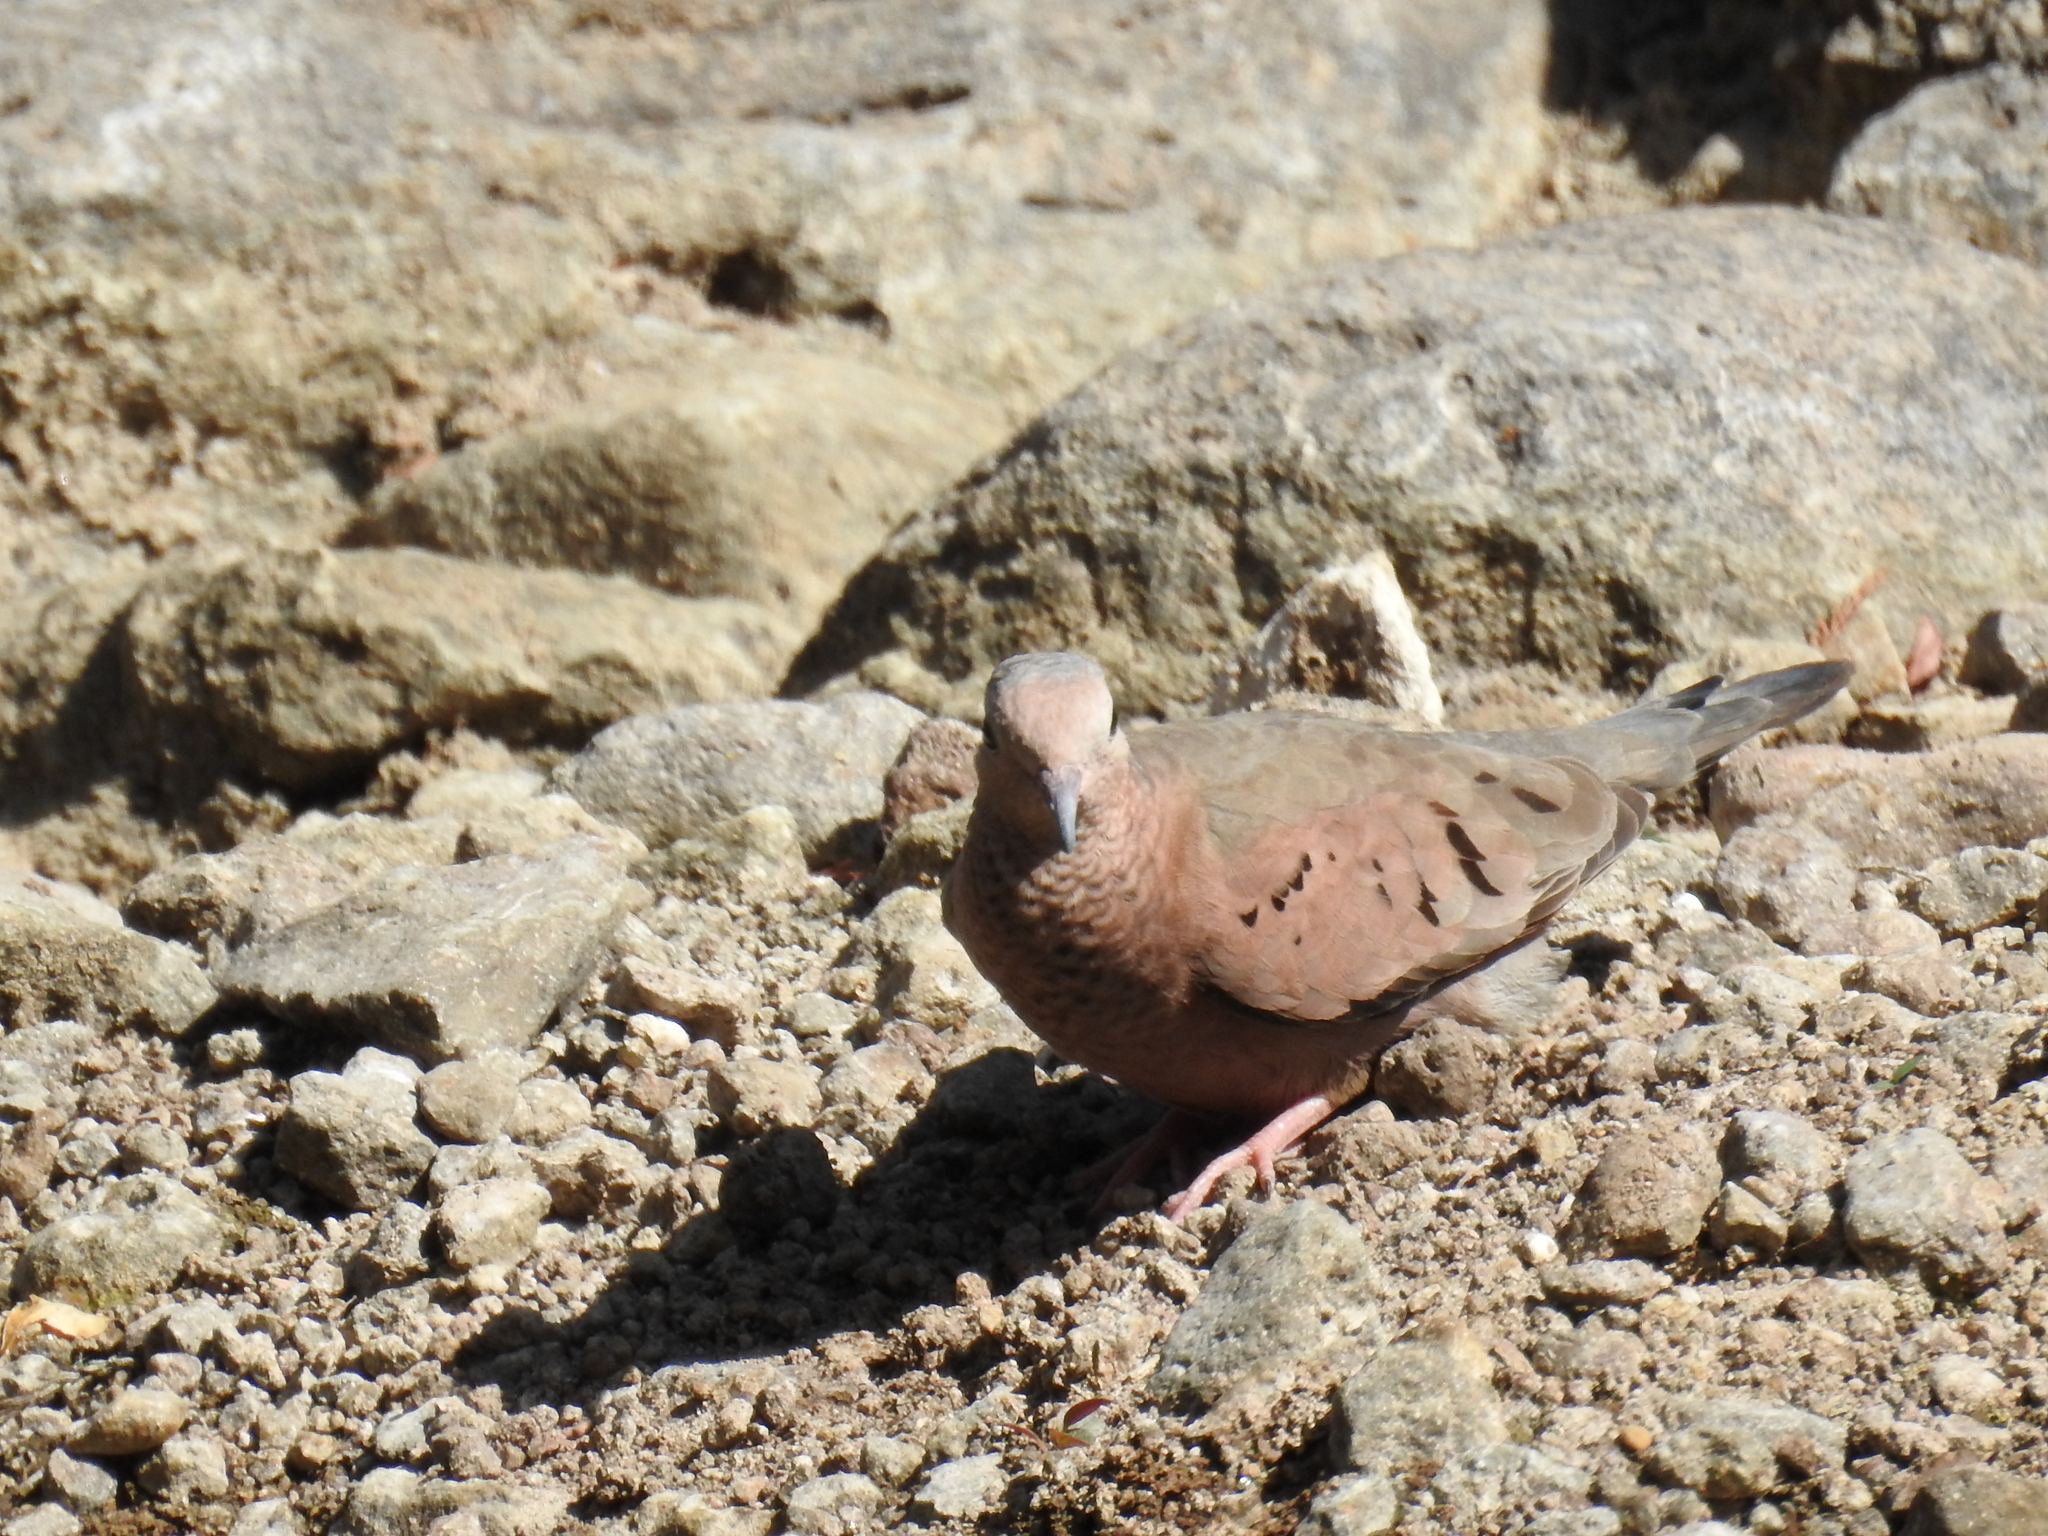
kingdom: Animalia
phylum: Chordata
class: Aves
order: Columbiformes
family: Columbidae
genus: Columbina
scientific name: Columbina passerina
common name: Common ground-dove
